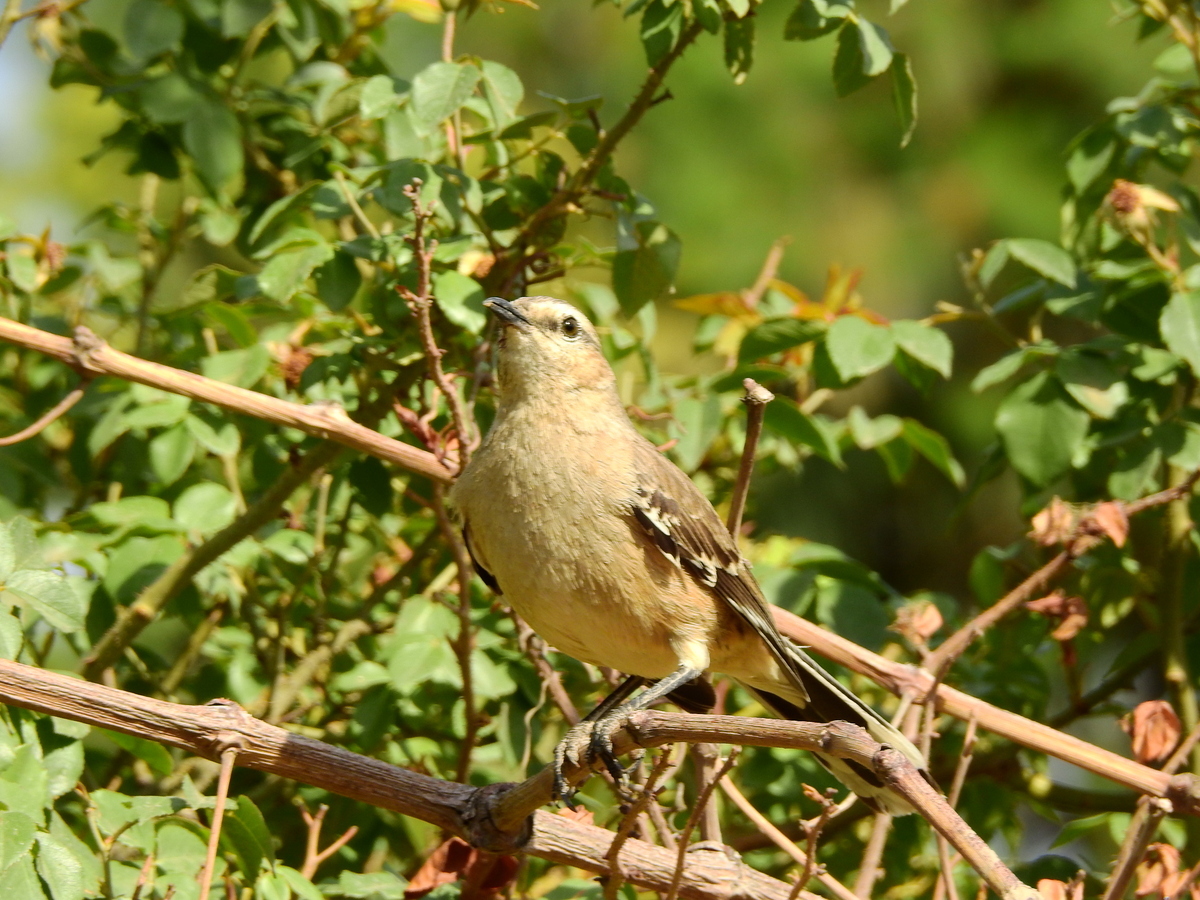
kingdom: Animalia
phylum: Chordata
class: Aves
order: Passeriformes
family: Mimidae
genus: Mimus
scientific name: Mimus patagonicus
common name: Patagonian mockingbird
